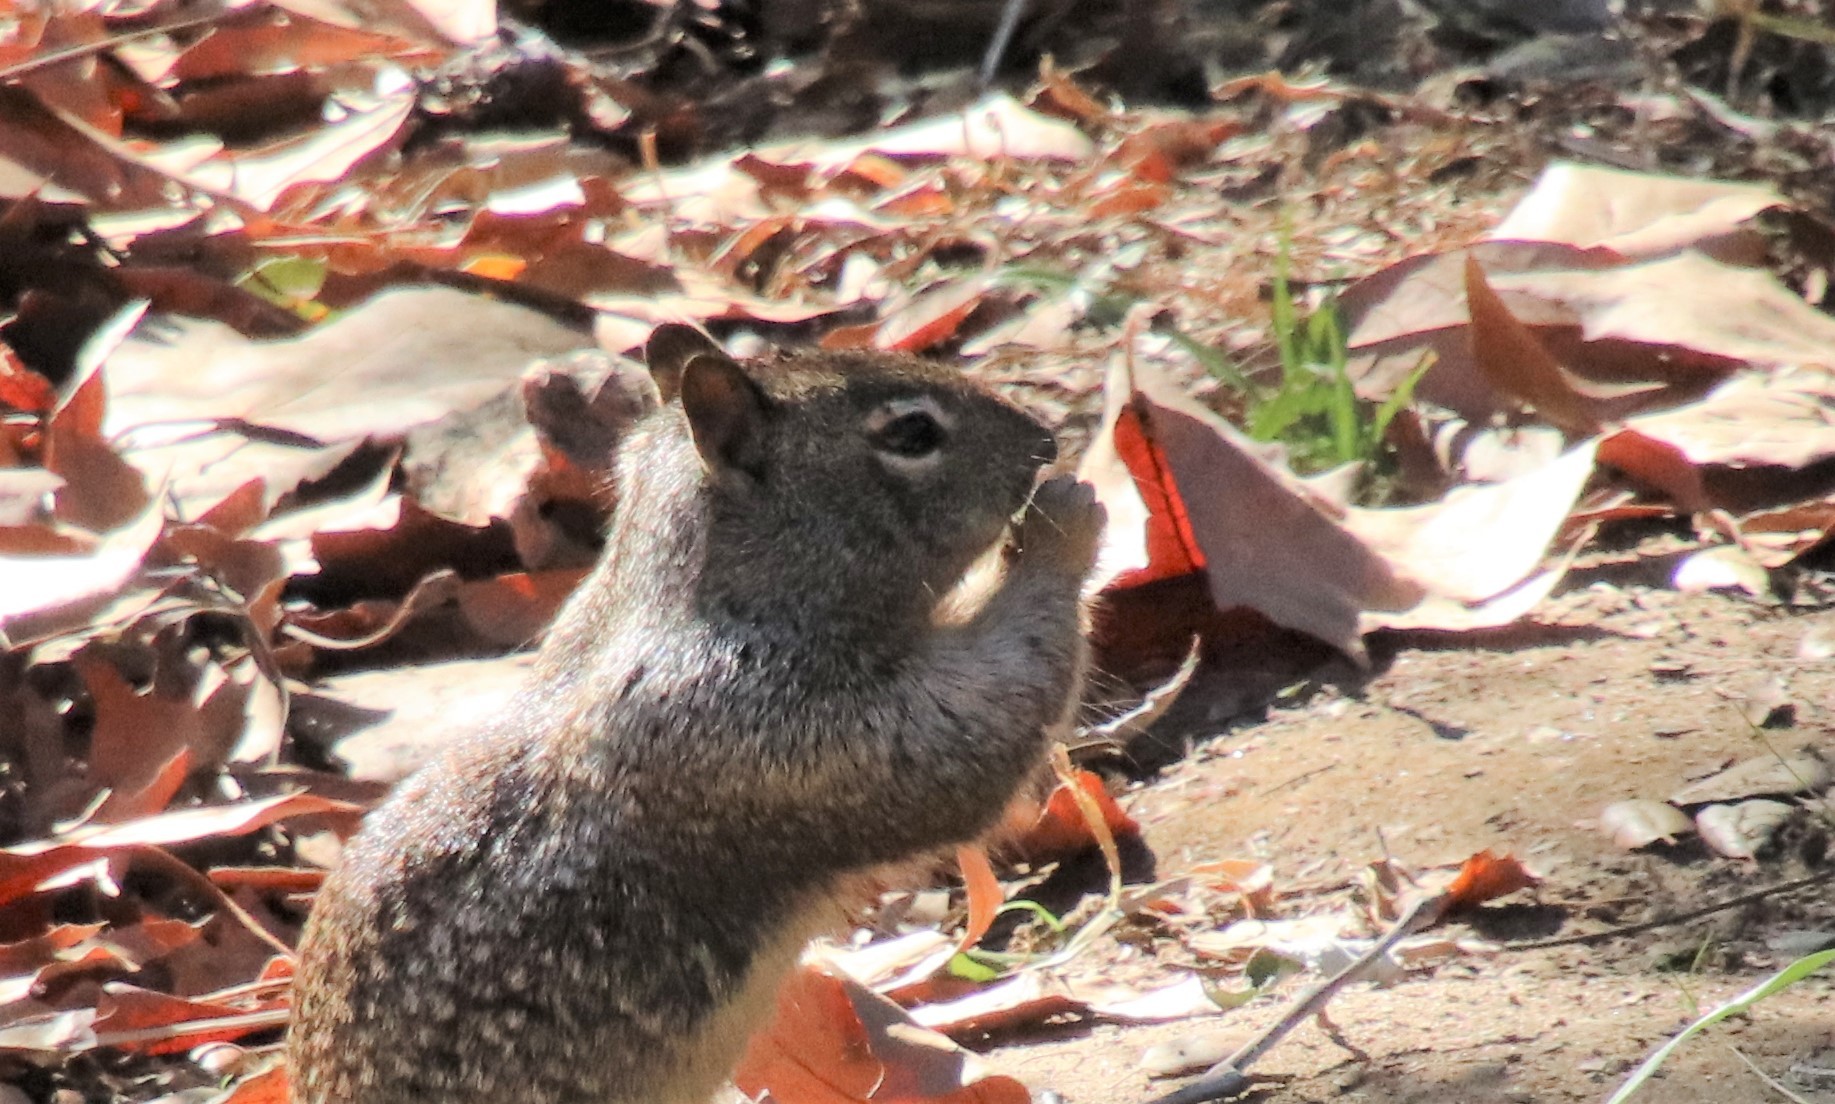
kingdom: Animalia
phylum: Chordata
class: Mammalia
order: Rodentia
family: Sciuridae
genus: Otospermophilus
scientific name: Otospermophilus beecheyi
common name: California ground squirrel
